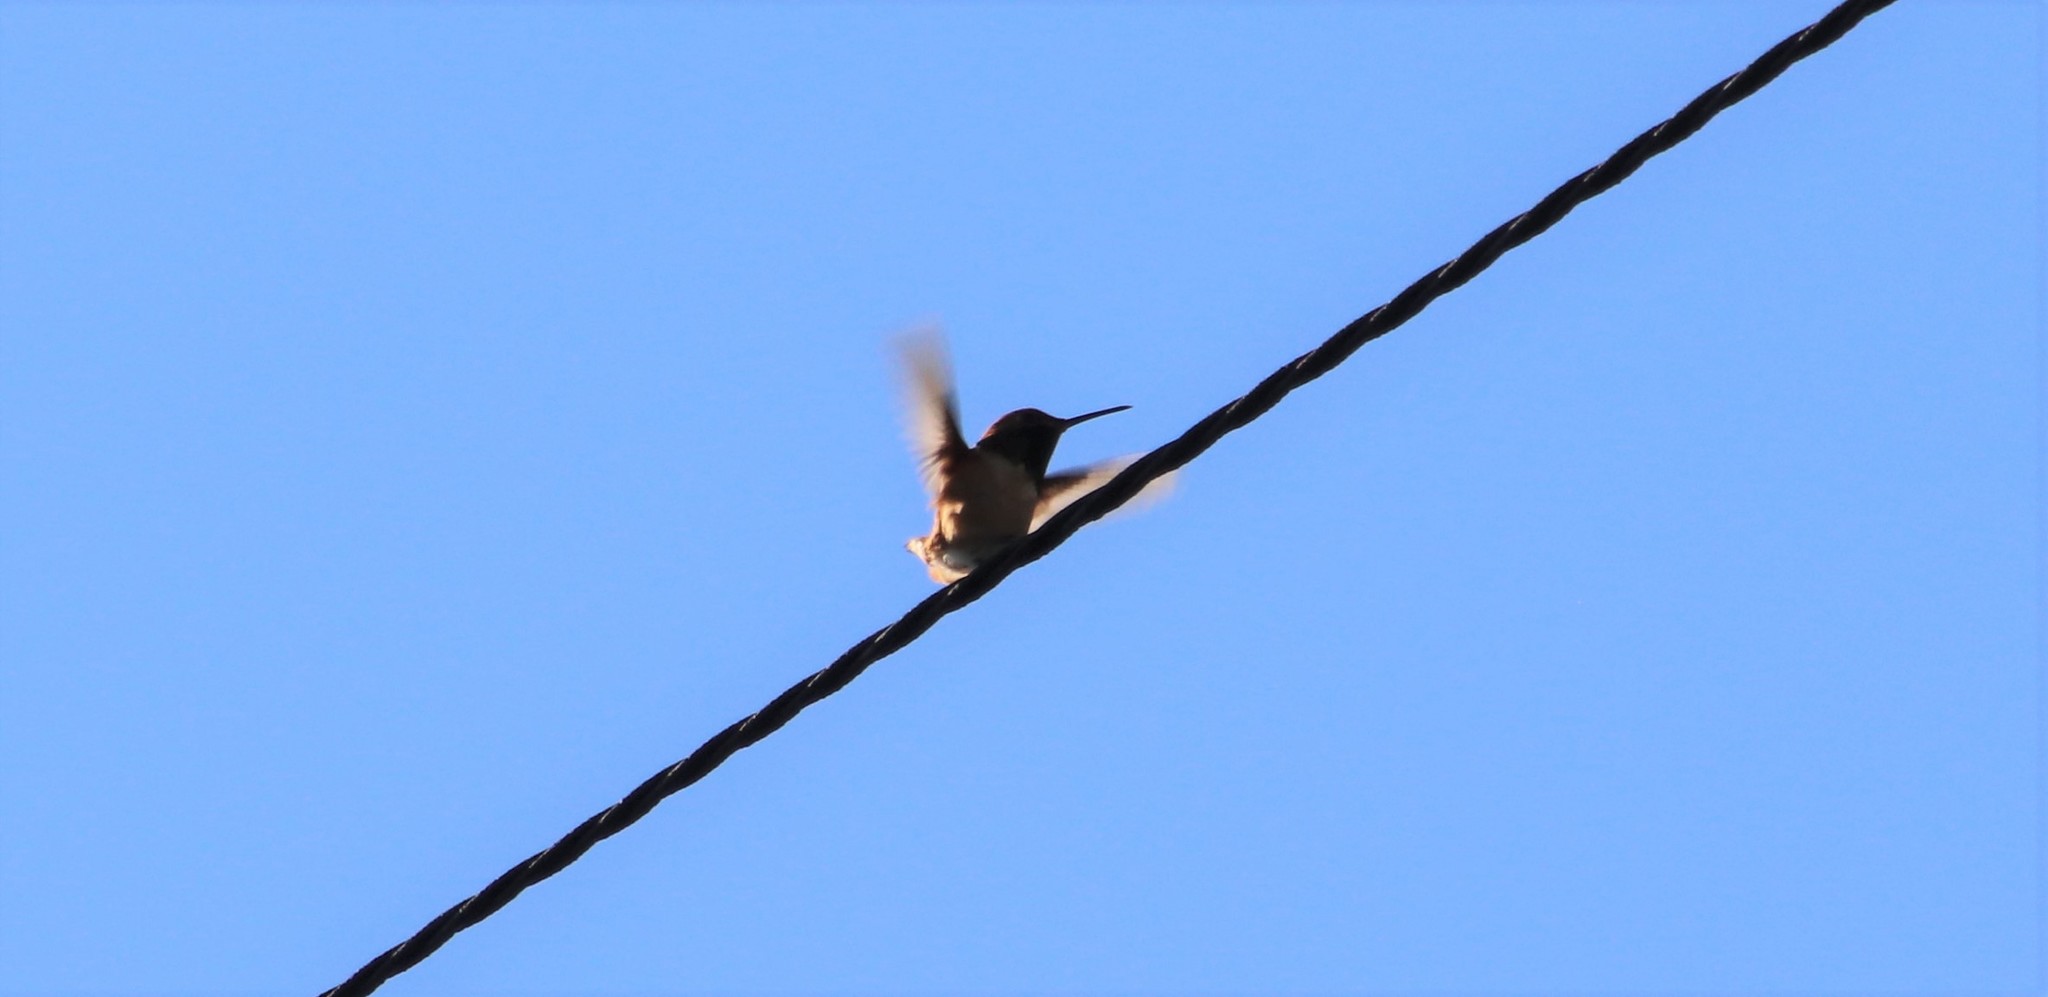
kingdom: Animalia
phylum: Chordata
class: Aves
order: Apodiformes
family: Trochilidae
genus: Selasphorus
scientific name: Selasphorus
